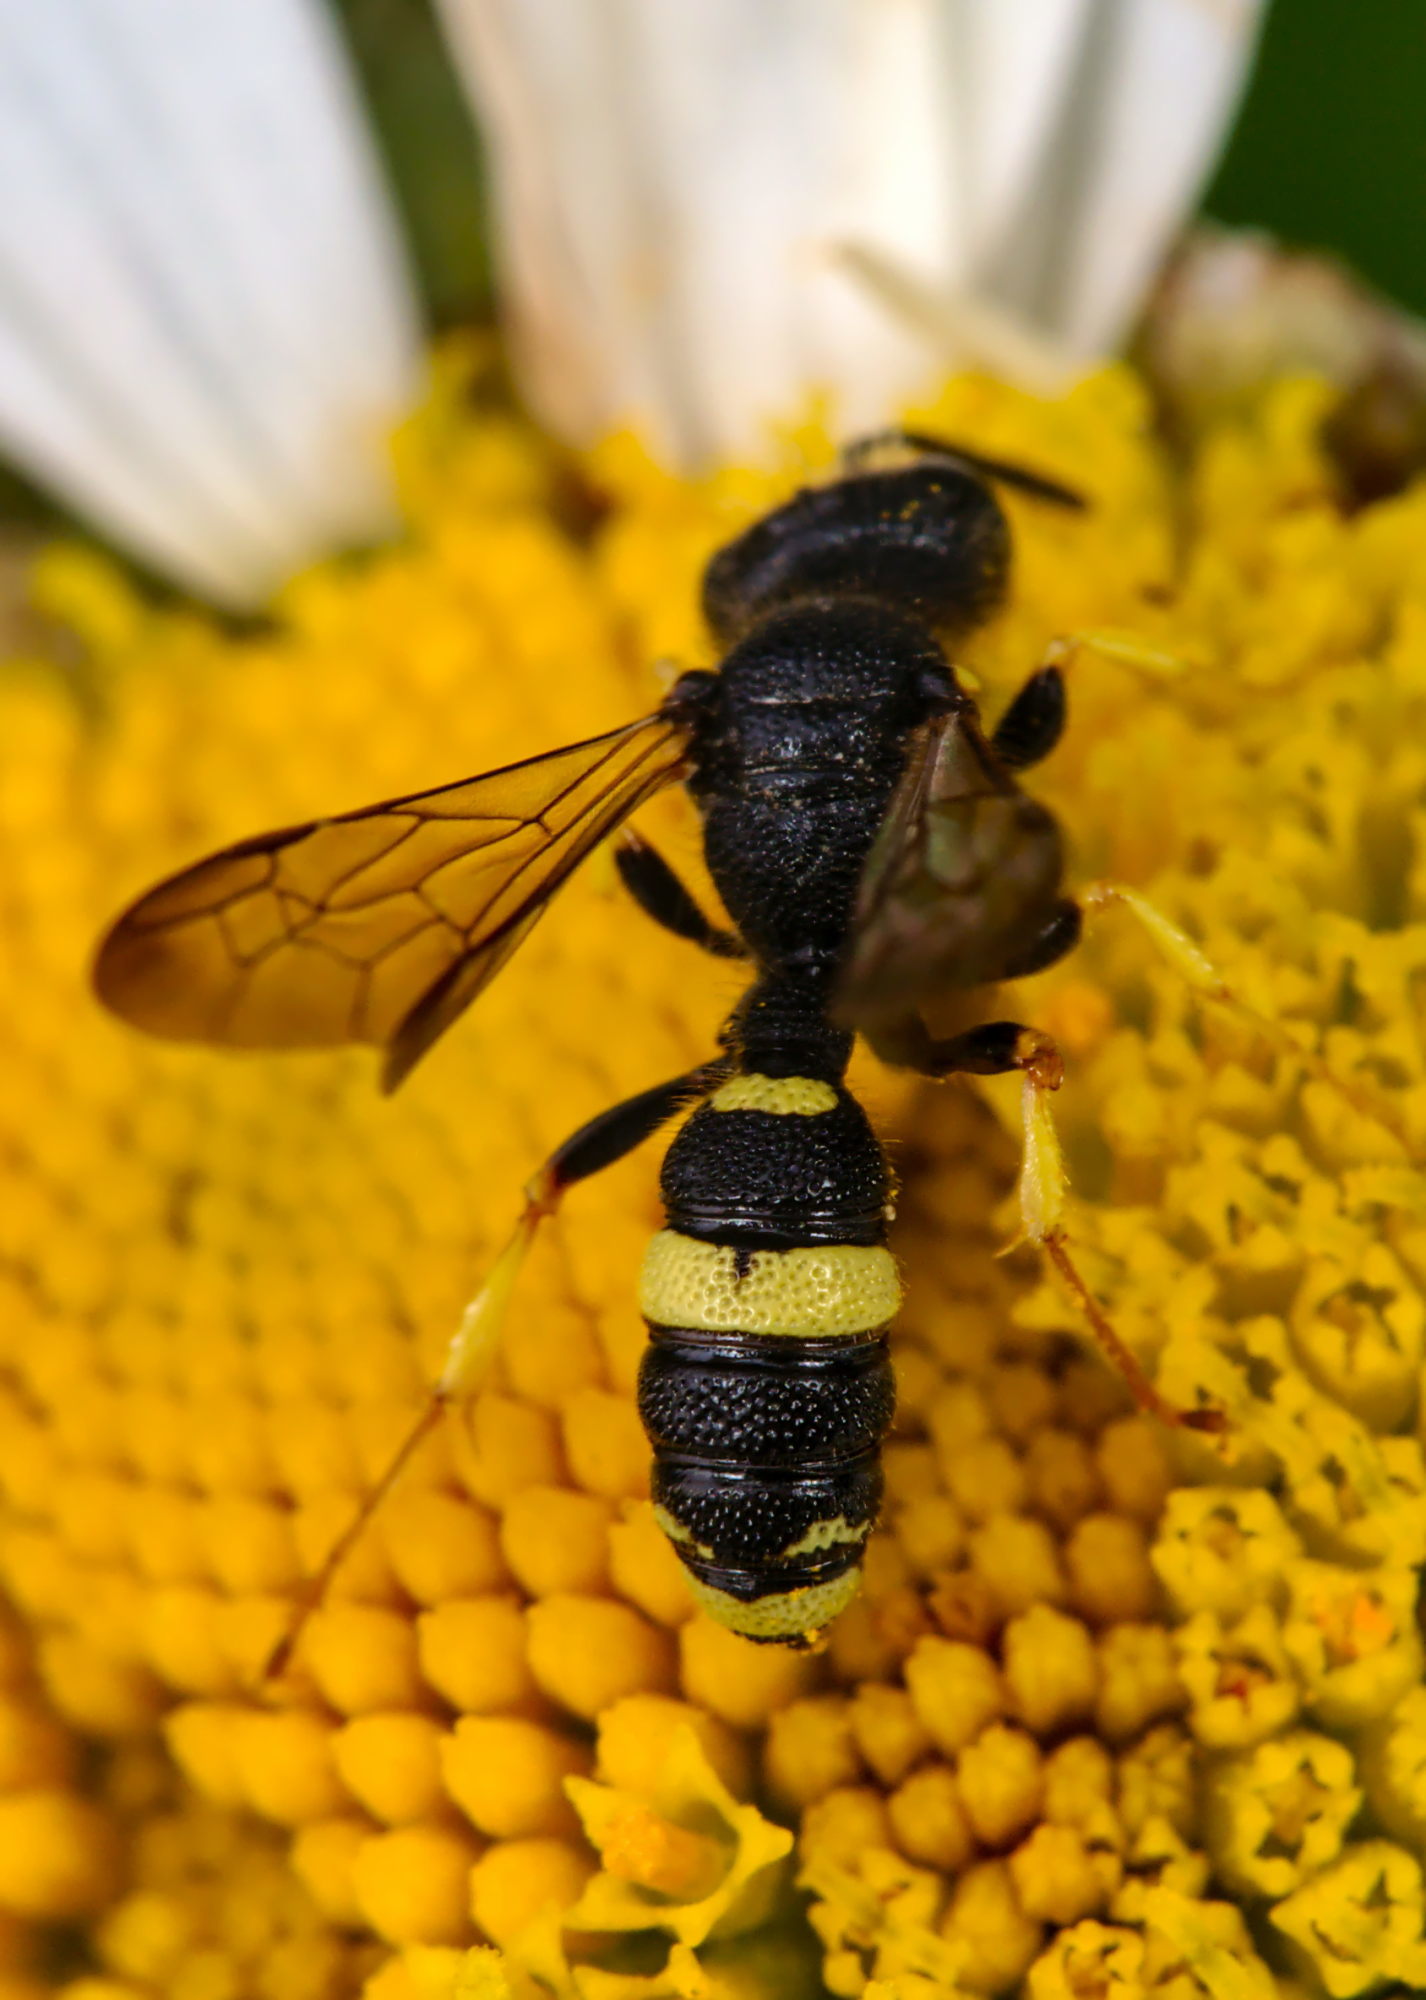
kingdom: Animalia
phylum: Arthropoda
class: Insecta
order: Hymenoptera
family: Crabronidae
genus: Cerceris
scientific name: Cerceris rybyensis
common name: Ornate tailed digger wasp
